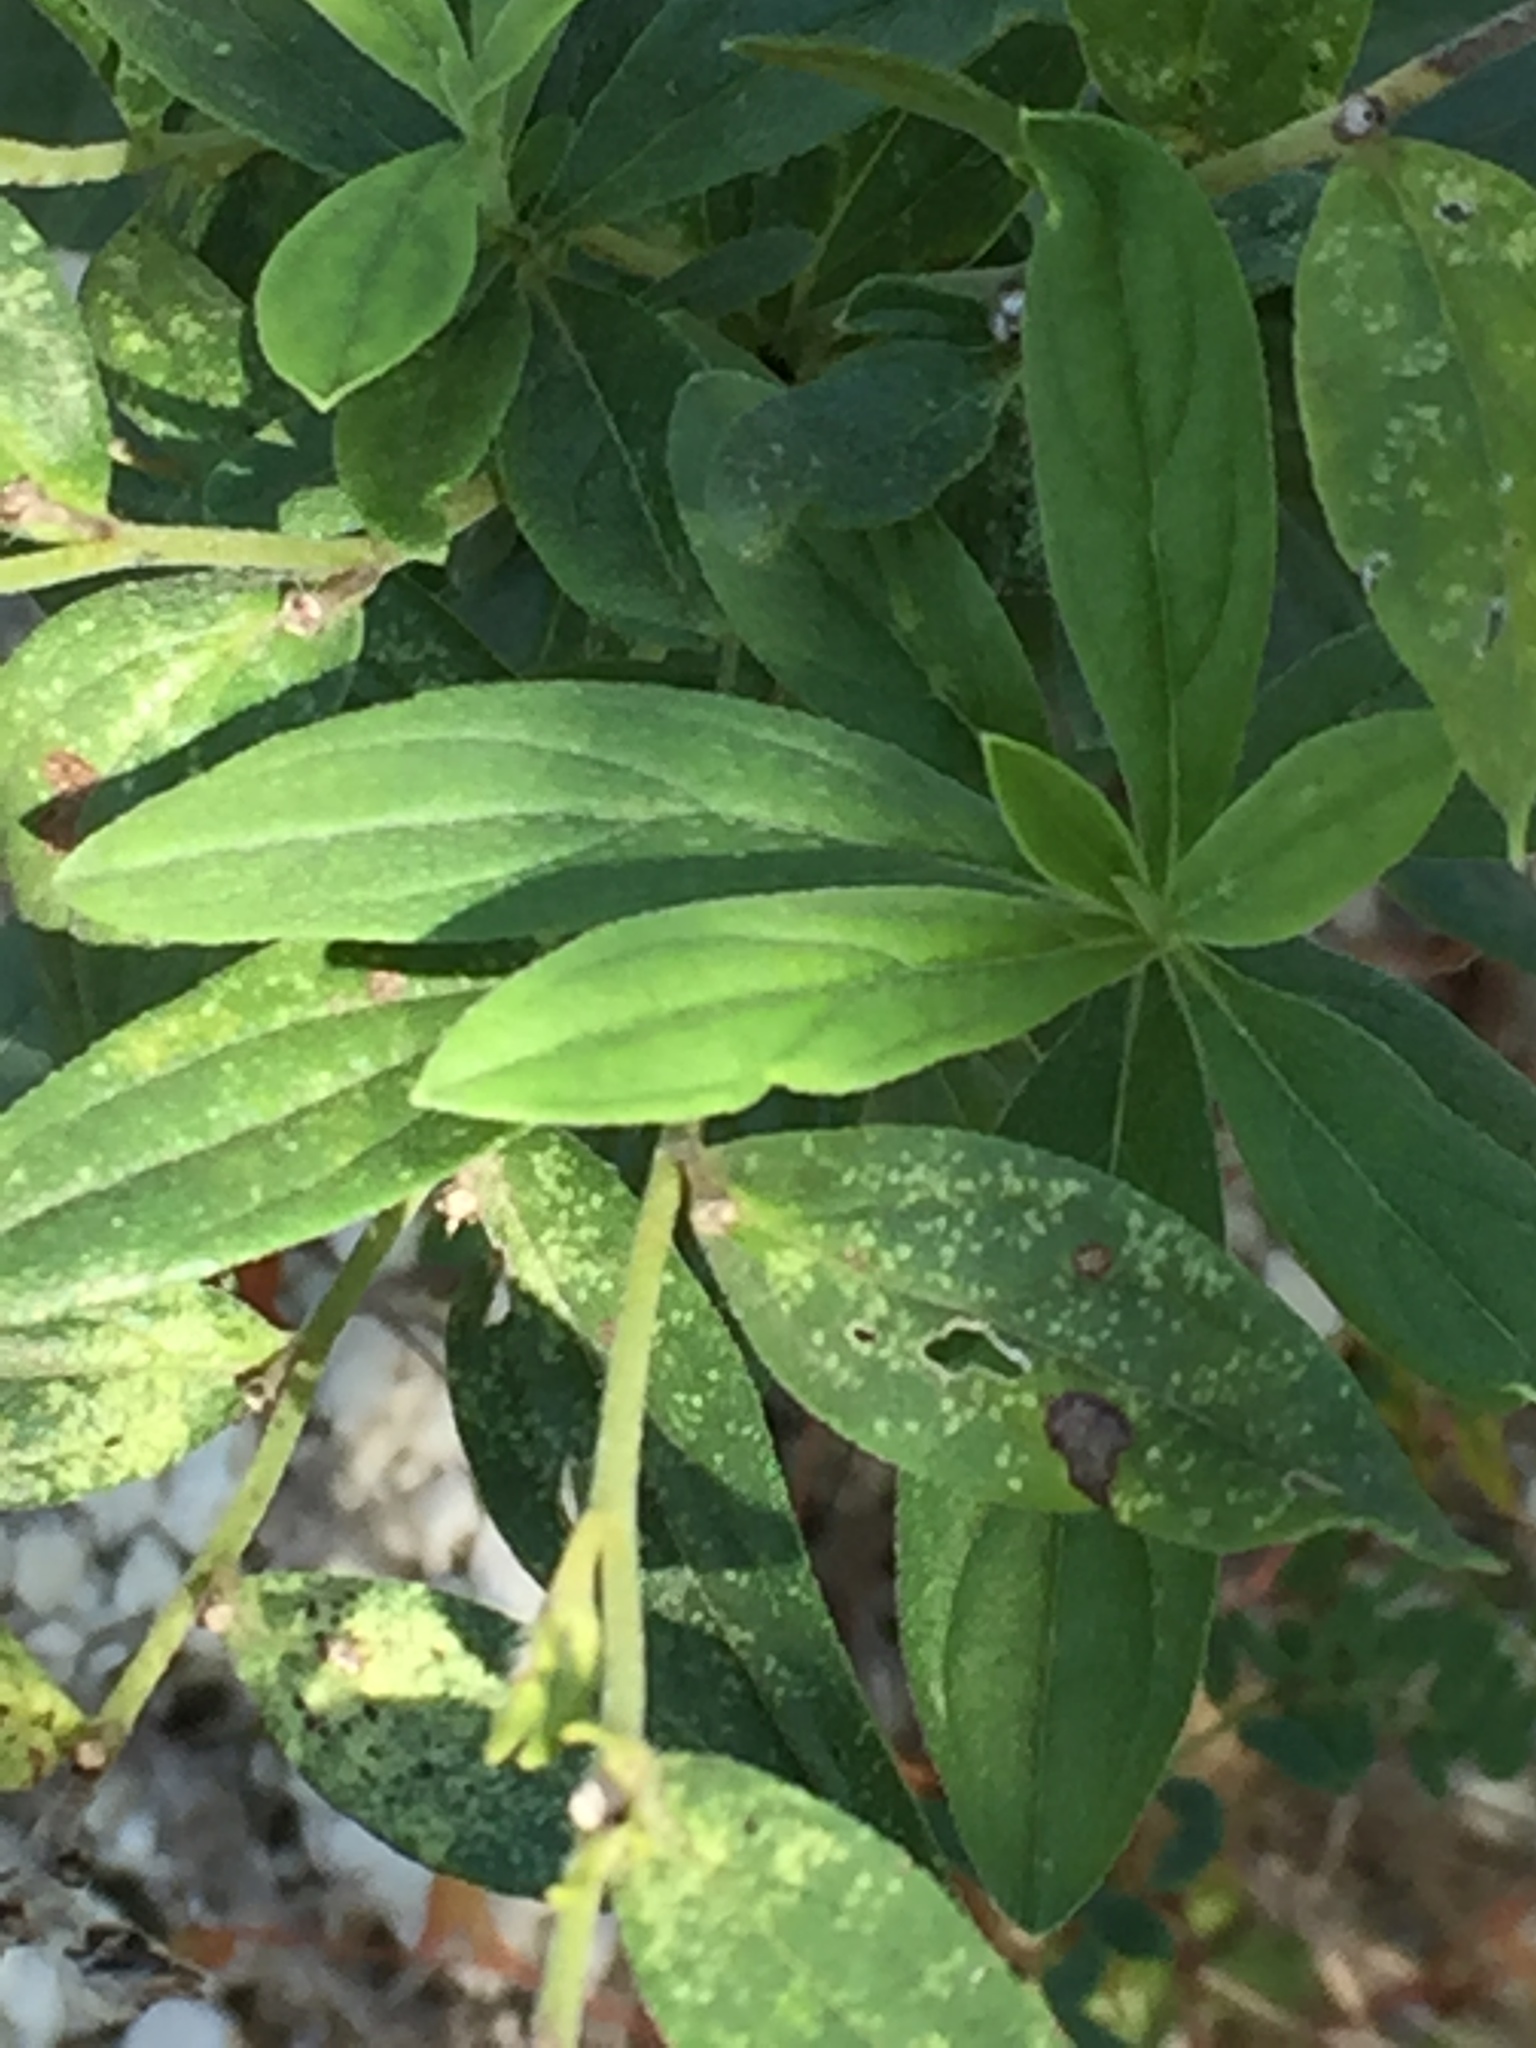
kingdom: Plantae
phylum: Tracheophyta
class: Magnoliopsida
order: Boraginales
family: Boraginaceae
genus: Lithospermum
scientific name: Lithospermum officinale
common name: Common gromwell
